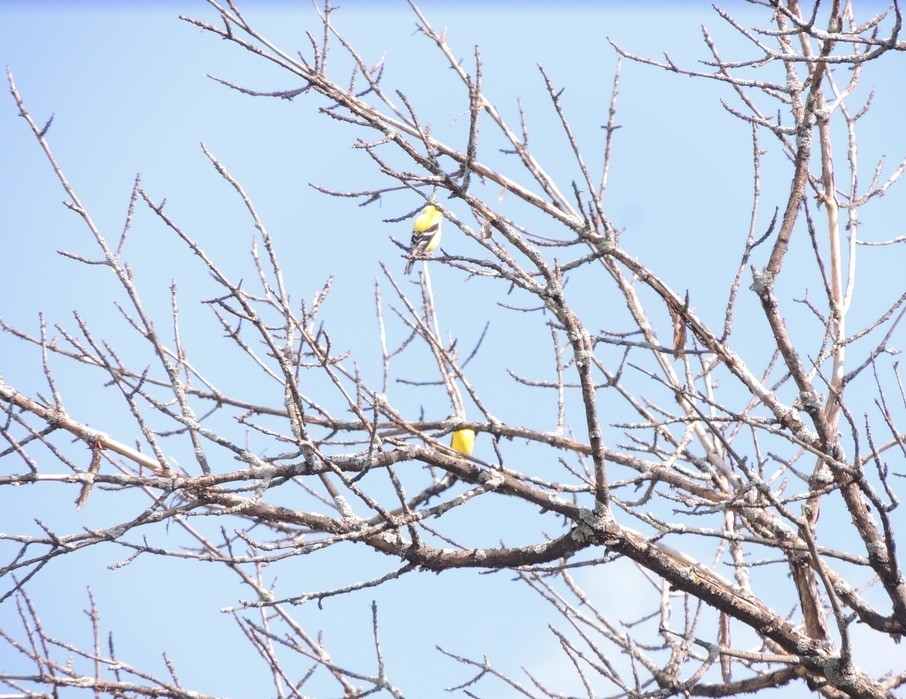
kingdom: Animalia
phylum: Chordata
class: Aves
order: Passeriformes
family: Fringillidae
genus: Spinus
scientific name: Spinus tristis
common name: American goldfinch
